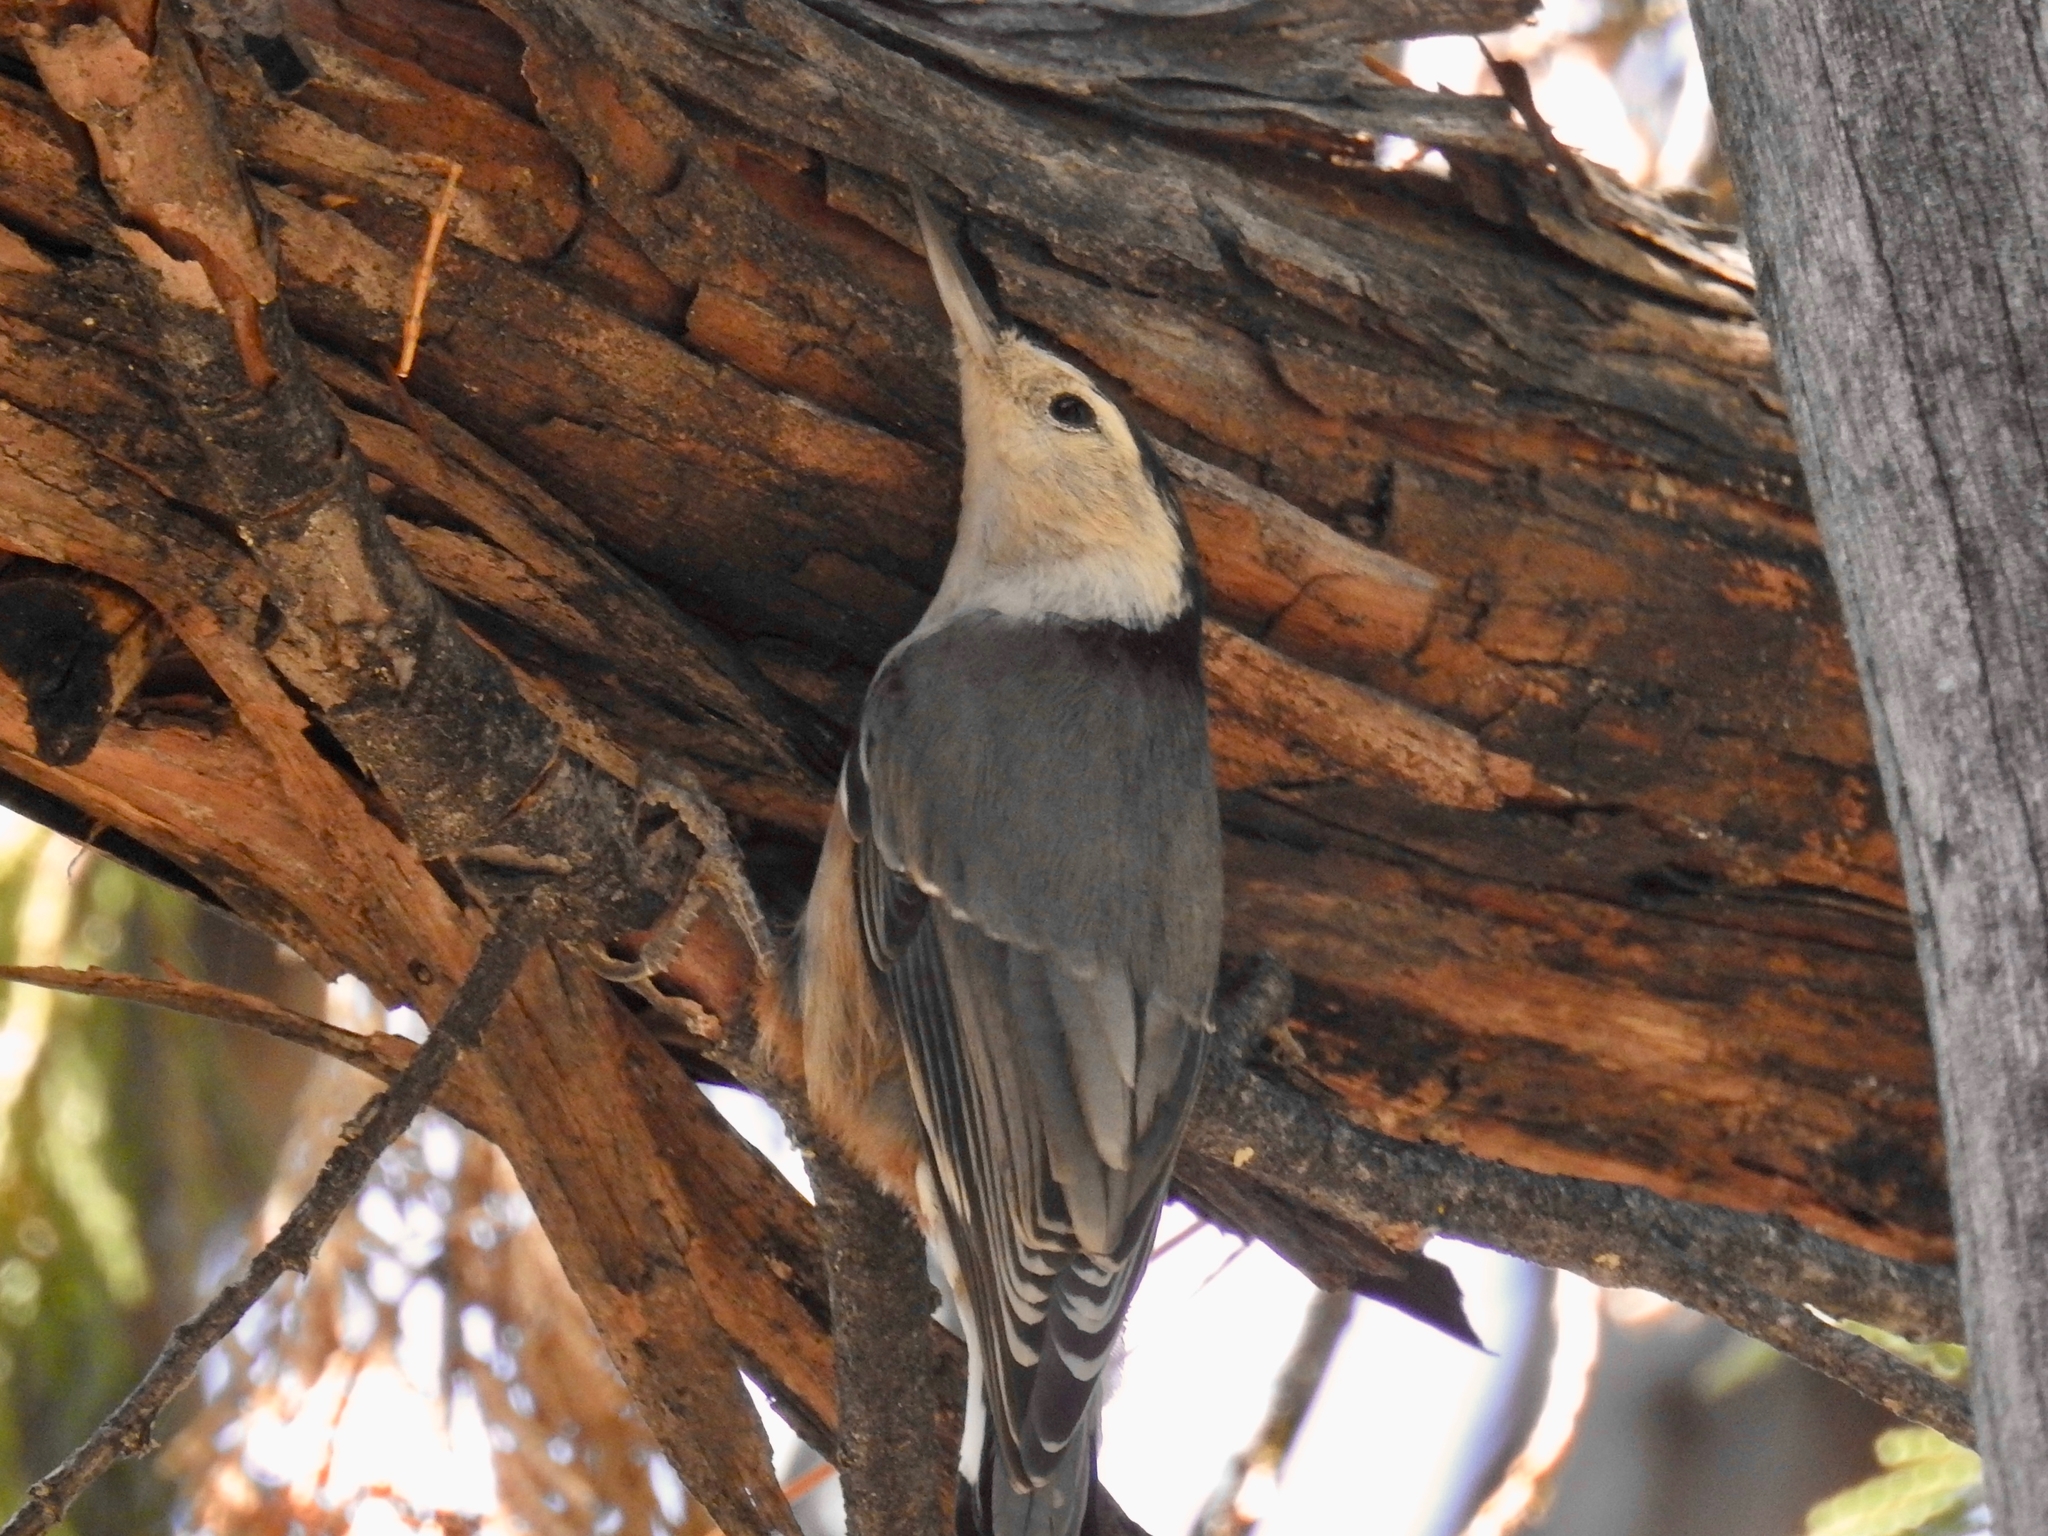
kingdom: Animalia
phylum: Chordata
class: Aves
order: Passeriformes
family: Sittidae
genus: Sitta
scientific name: Sitta carolinensis
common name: White-breasted nuthatch
